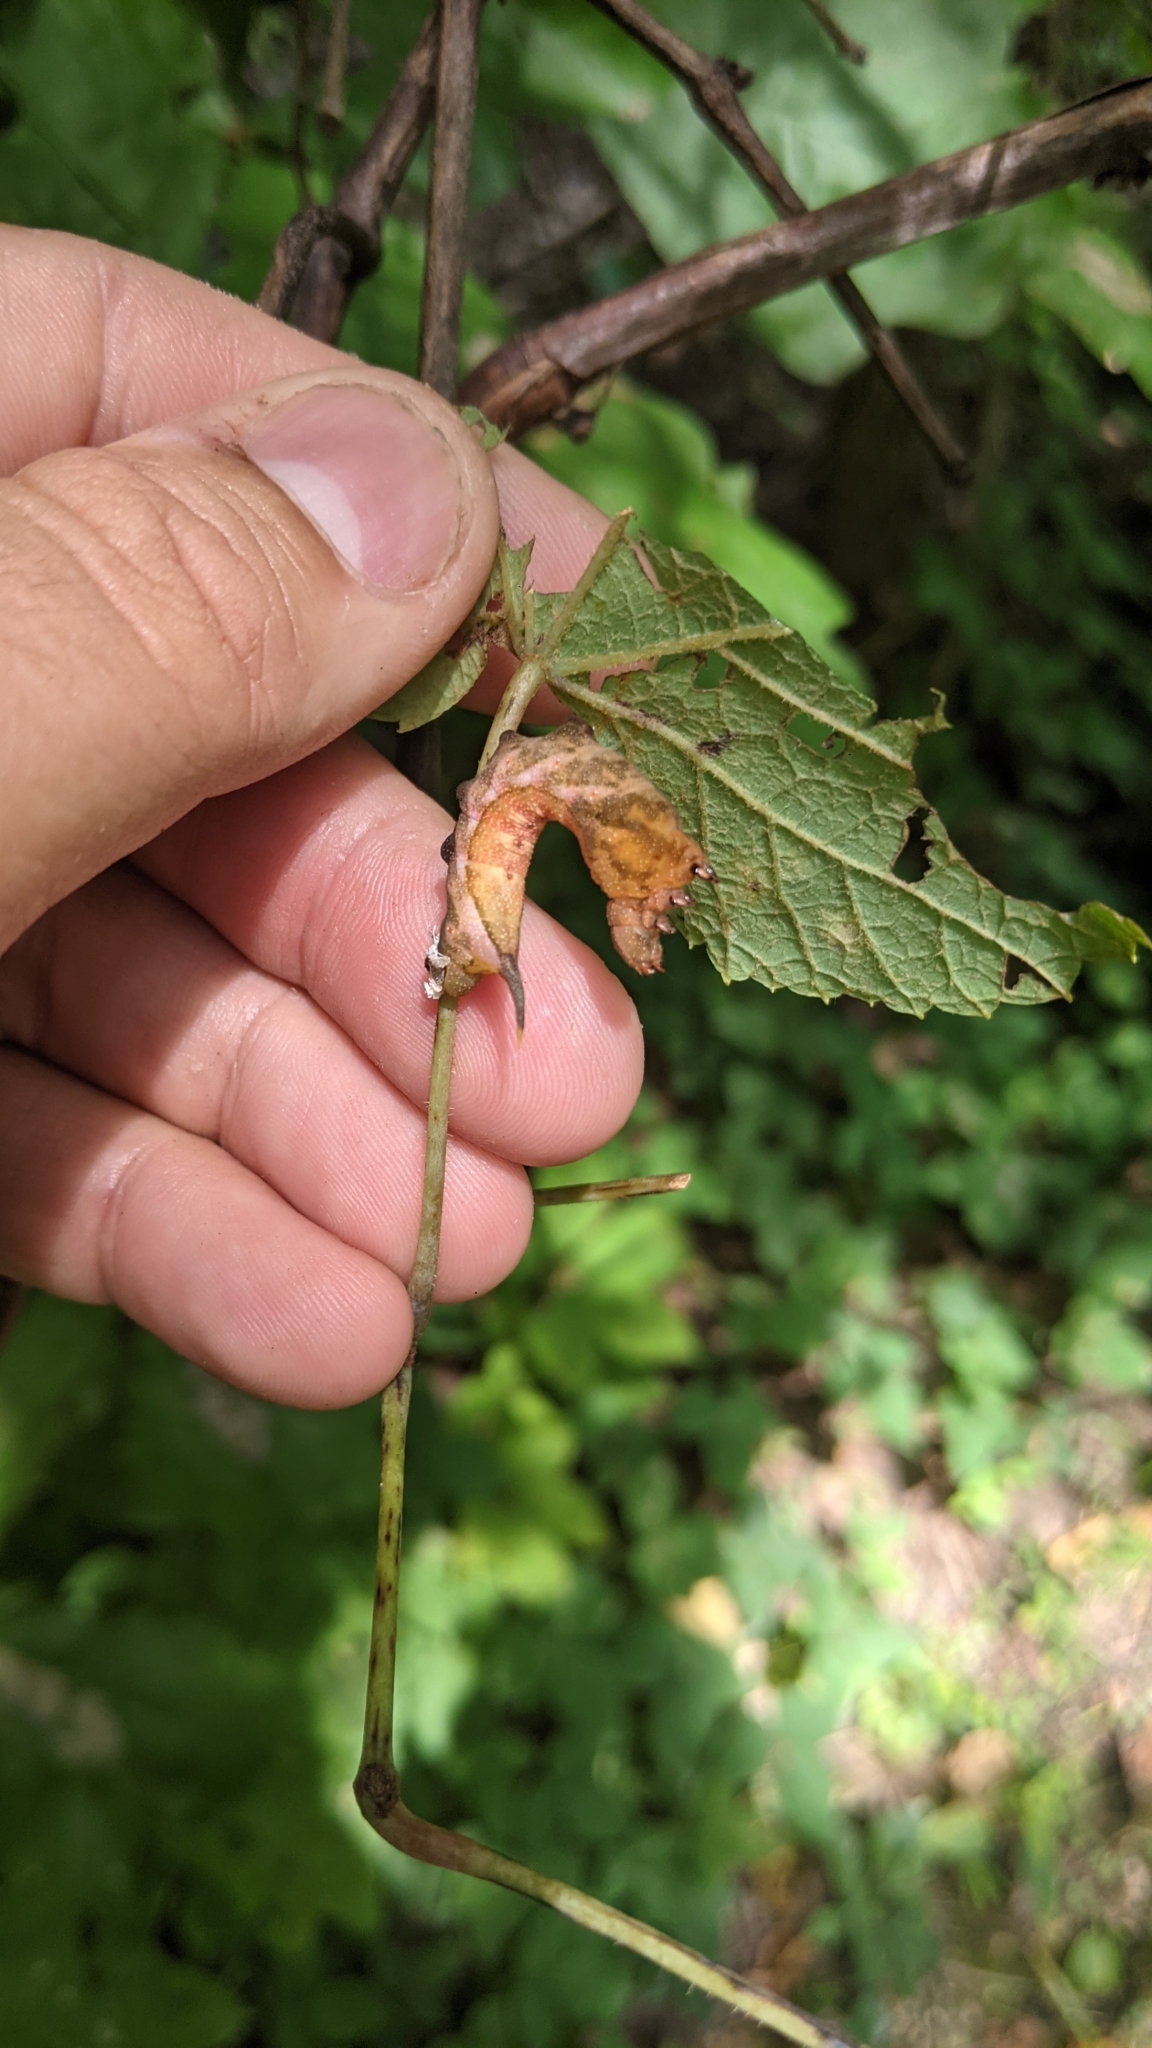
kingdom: Animalia
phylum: Arthropoda
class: Insecta
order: Lepidoptera
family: Sphingidae
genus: Darapsa
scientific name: Darapsa myron
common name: Hog sphinx
